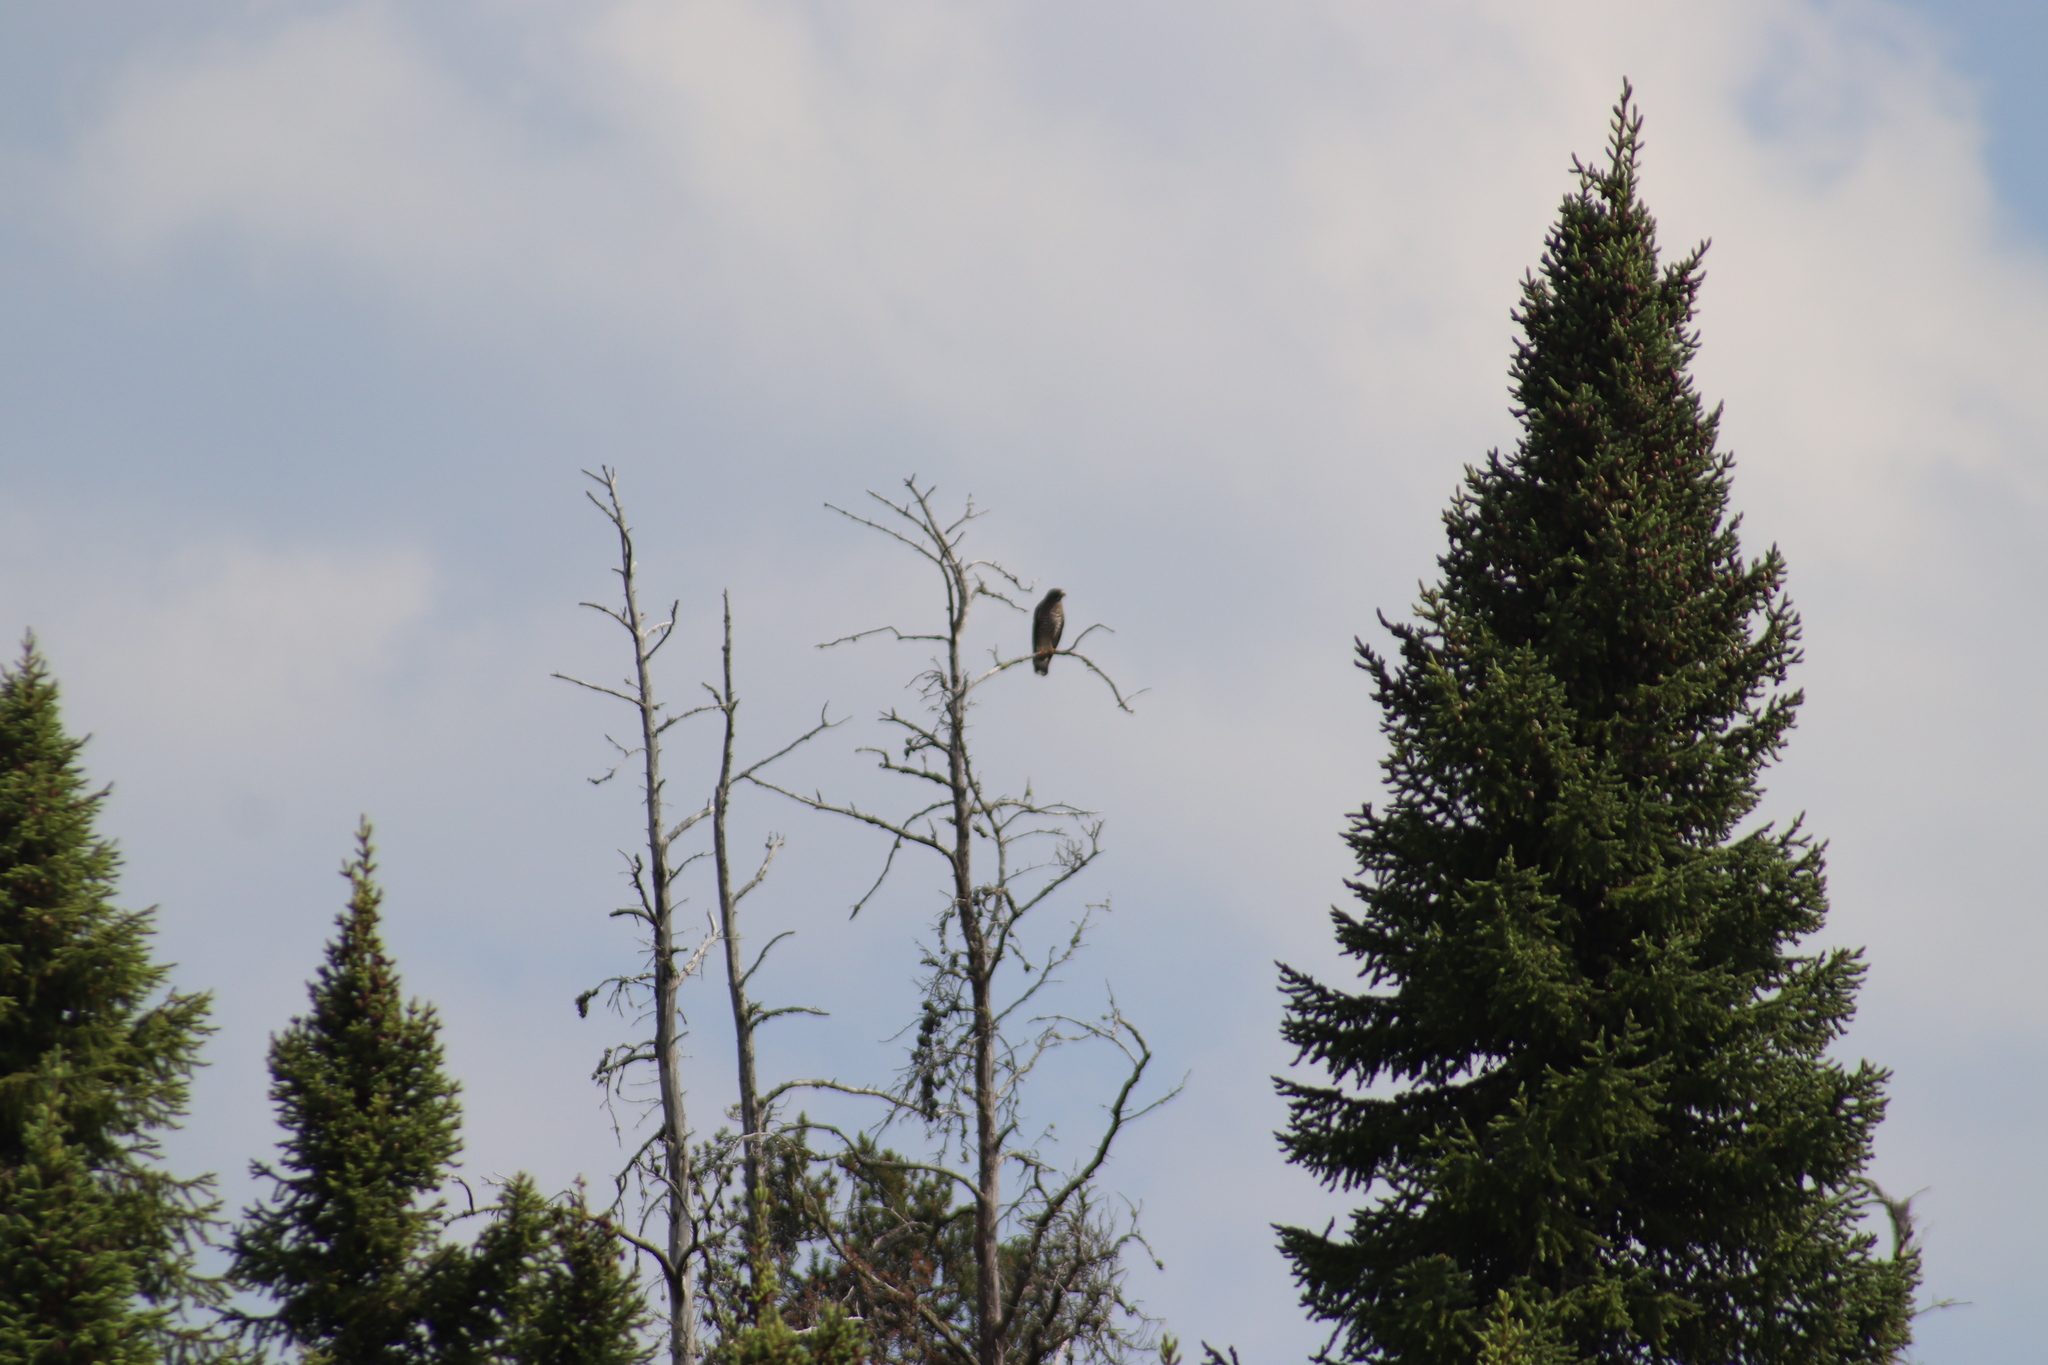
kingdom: Animalia
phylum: Chordata
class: Aves
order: Accipitriformes
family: Accipitridae
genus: Buteo
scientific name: Buteo platypterus
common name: Broad-winged hawk
